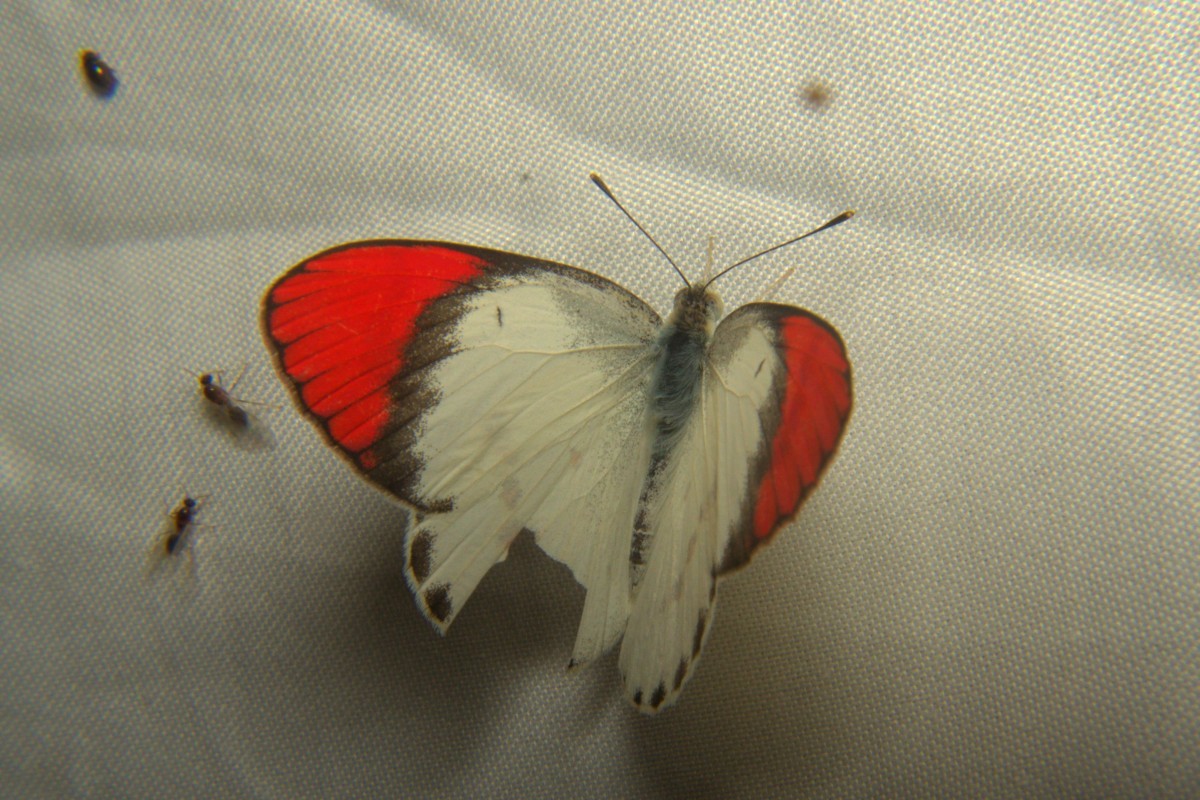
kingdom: Animalia
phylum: Arthropoda
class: Insecta
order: Lepidoptera
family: Pieridae
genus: Colotis
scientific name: Colotis danae
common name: Crimson tip
